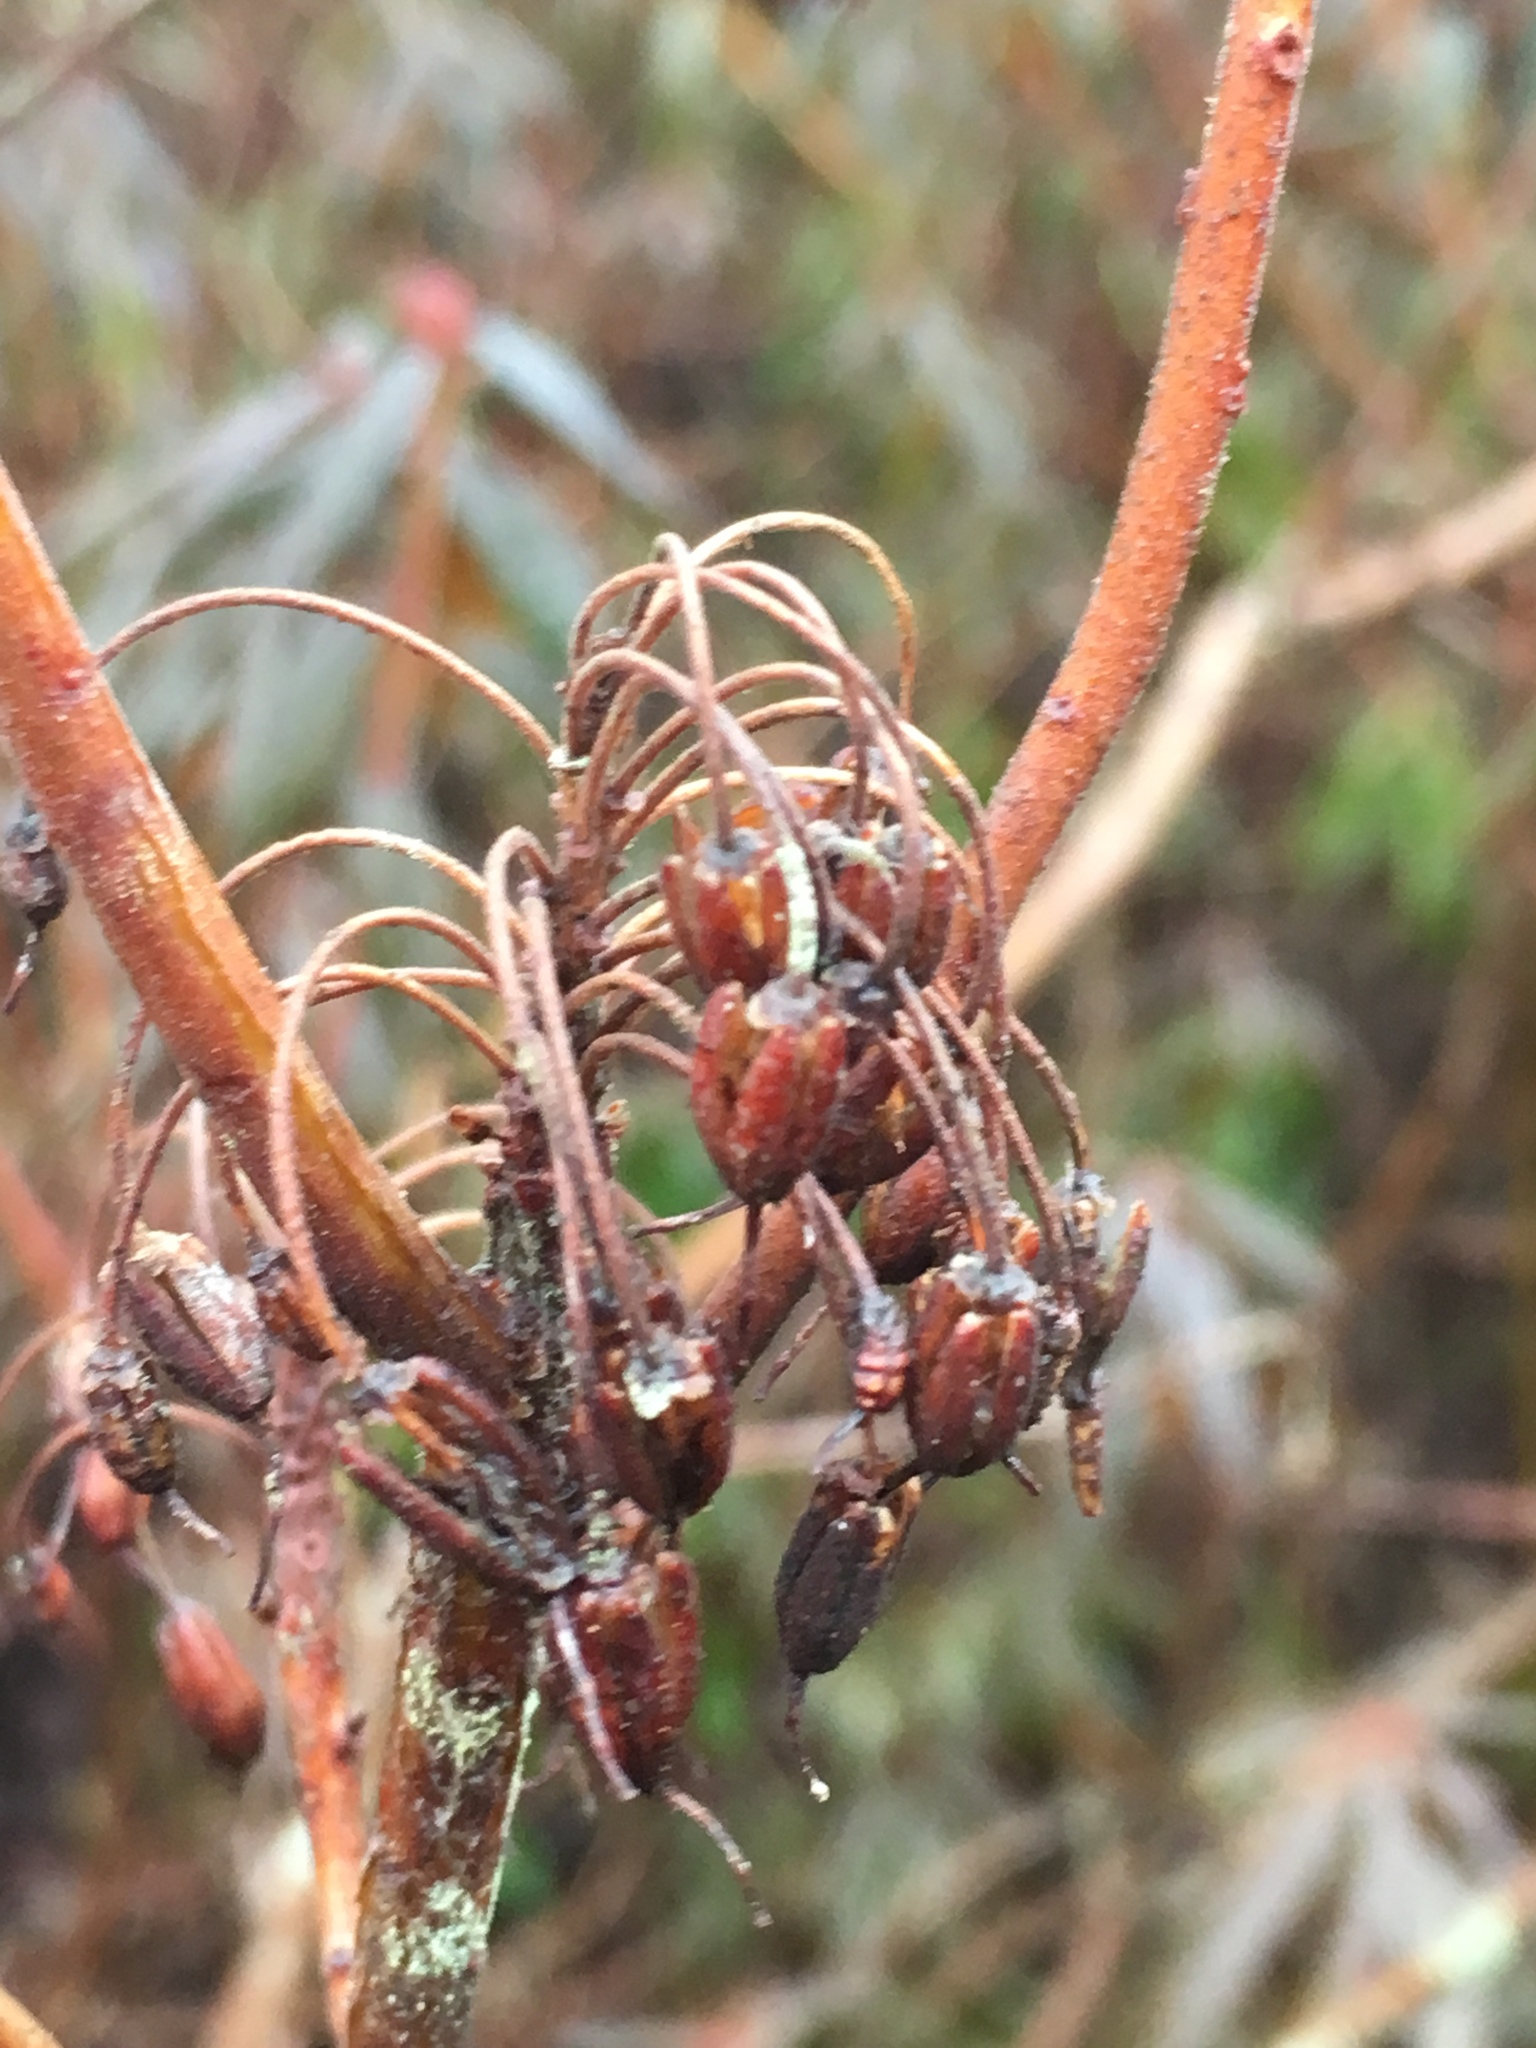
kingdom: Plantae
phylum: Tracheophyta
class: Magnoliopsida
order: Ericales
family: Ericaceae
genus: Rhododendron
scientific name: Rhododendron groenlandicum
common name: Bog labrador tea
